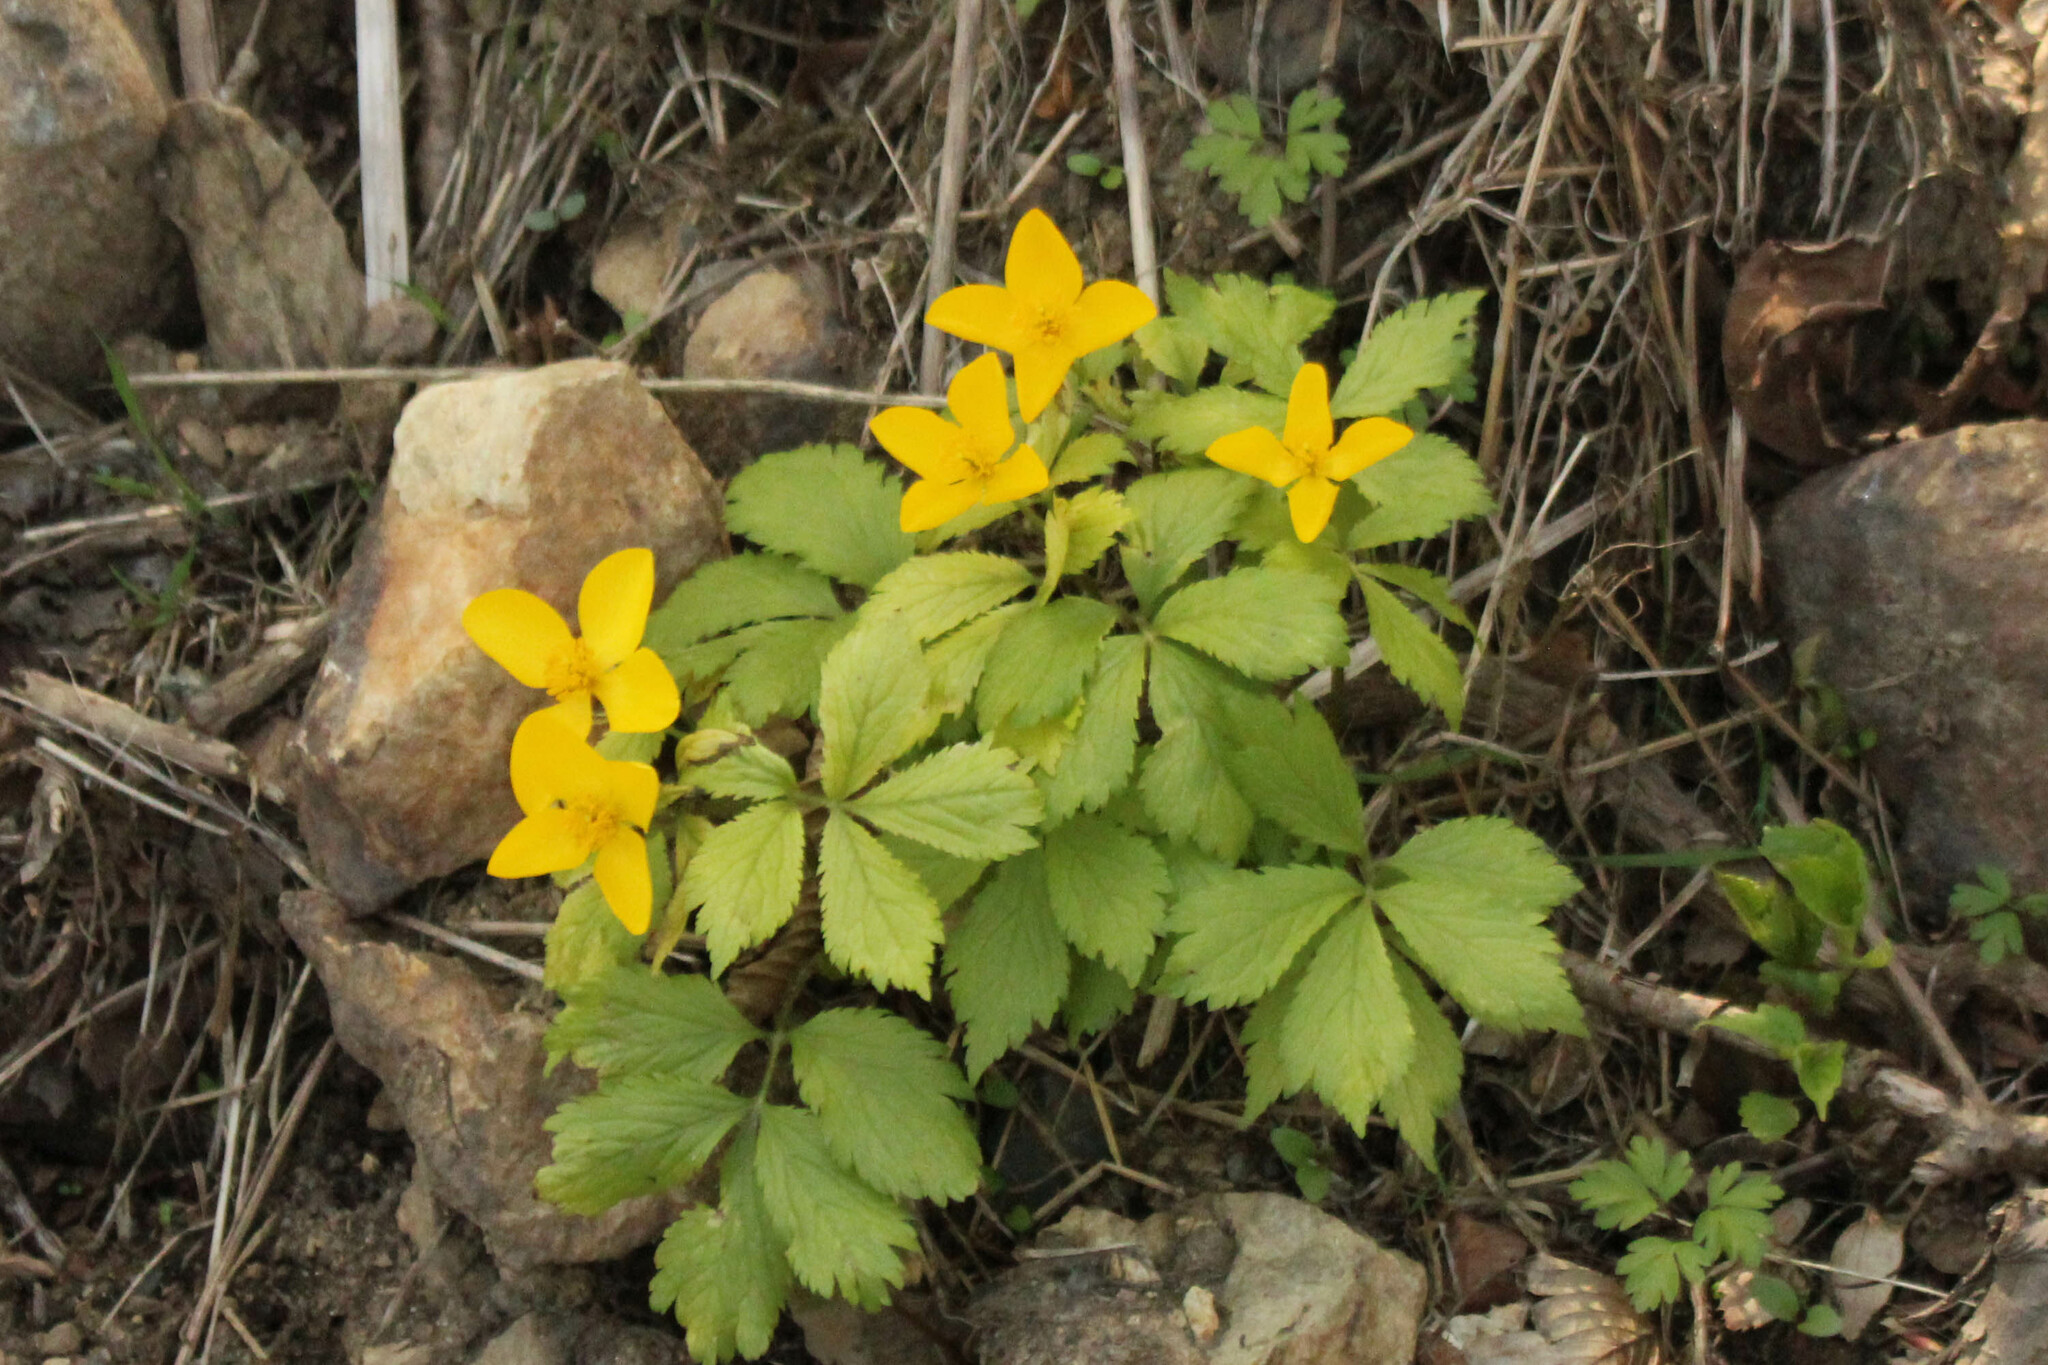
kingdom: Plantae
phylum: Tracheophyta
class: Magnoliopsida
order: Ranunculales
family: Papaveraceae
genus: Hylomecon
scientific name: Hylomecon vernalis
